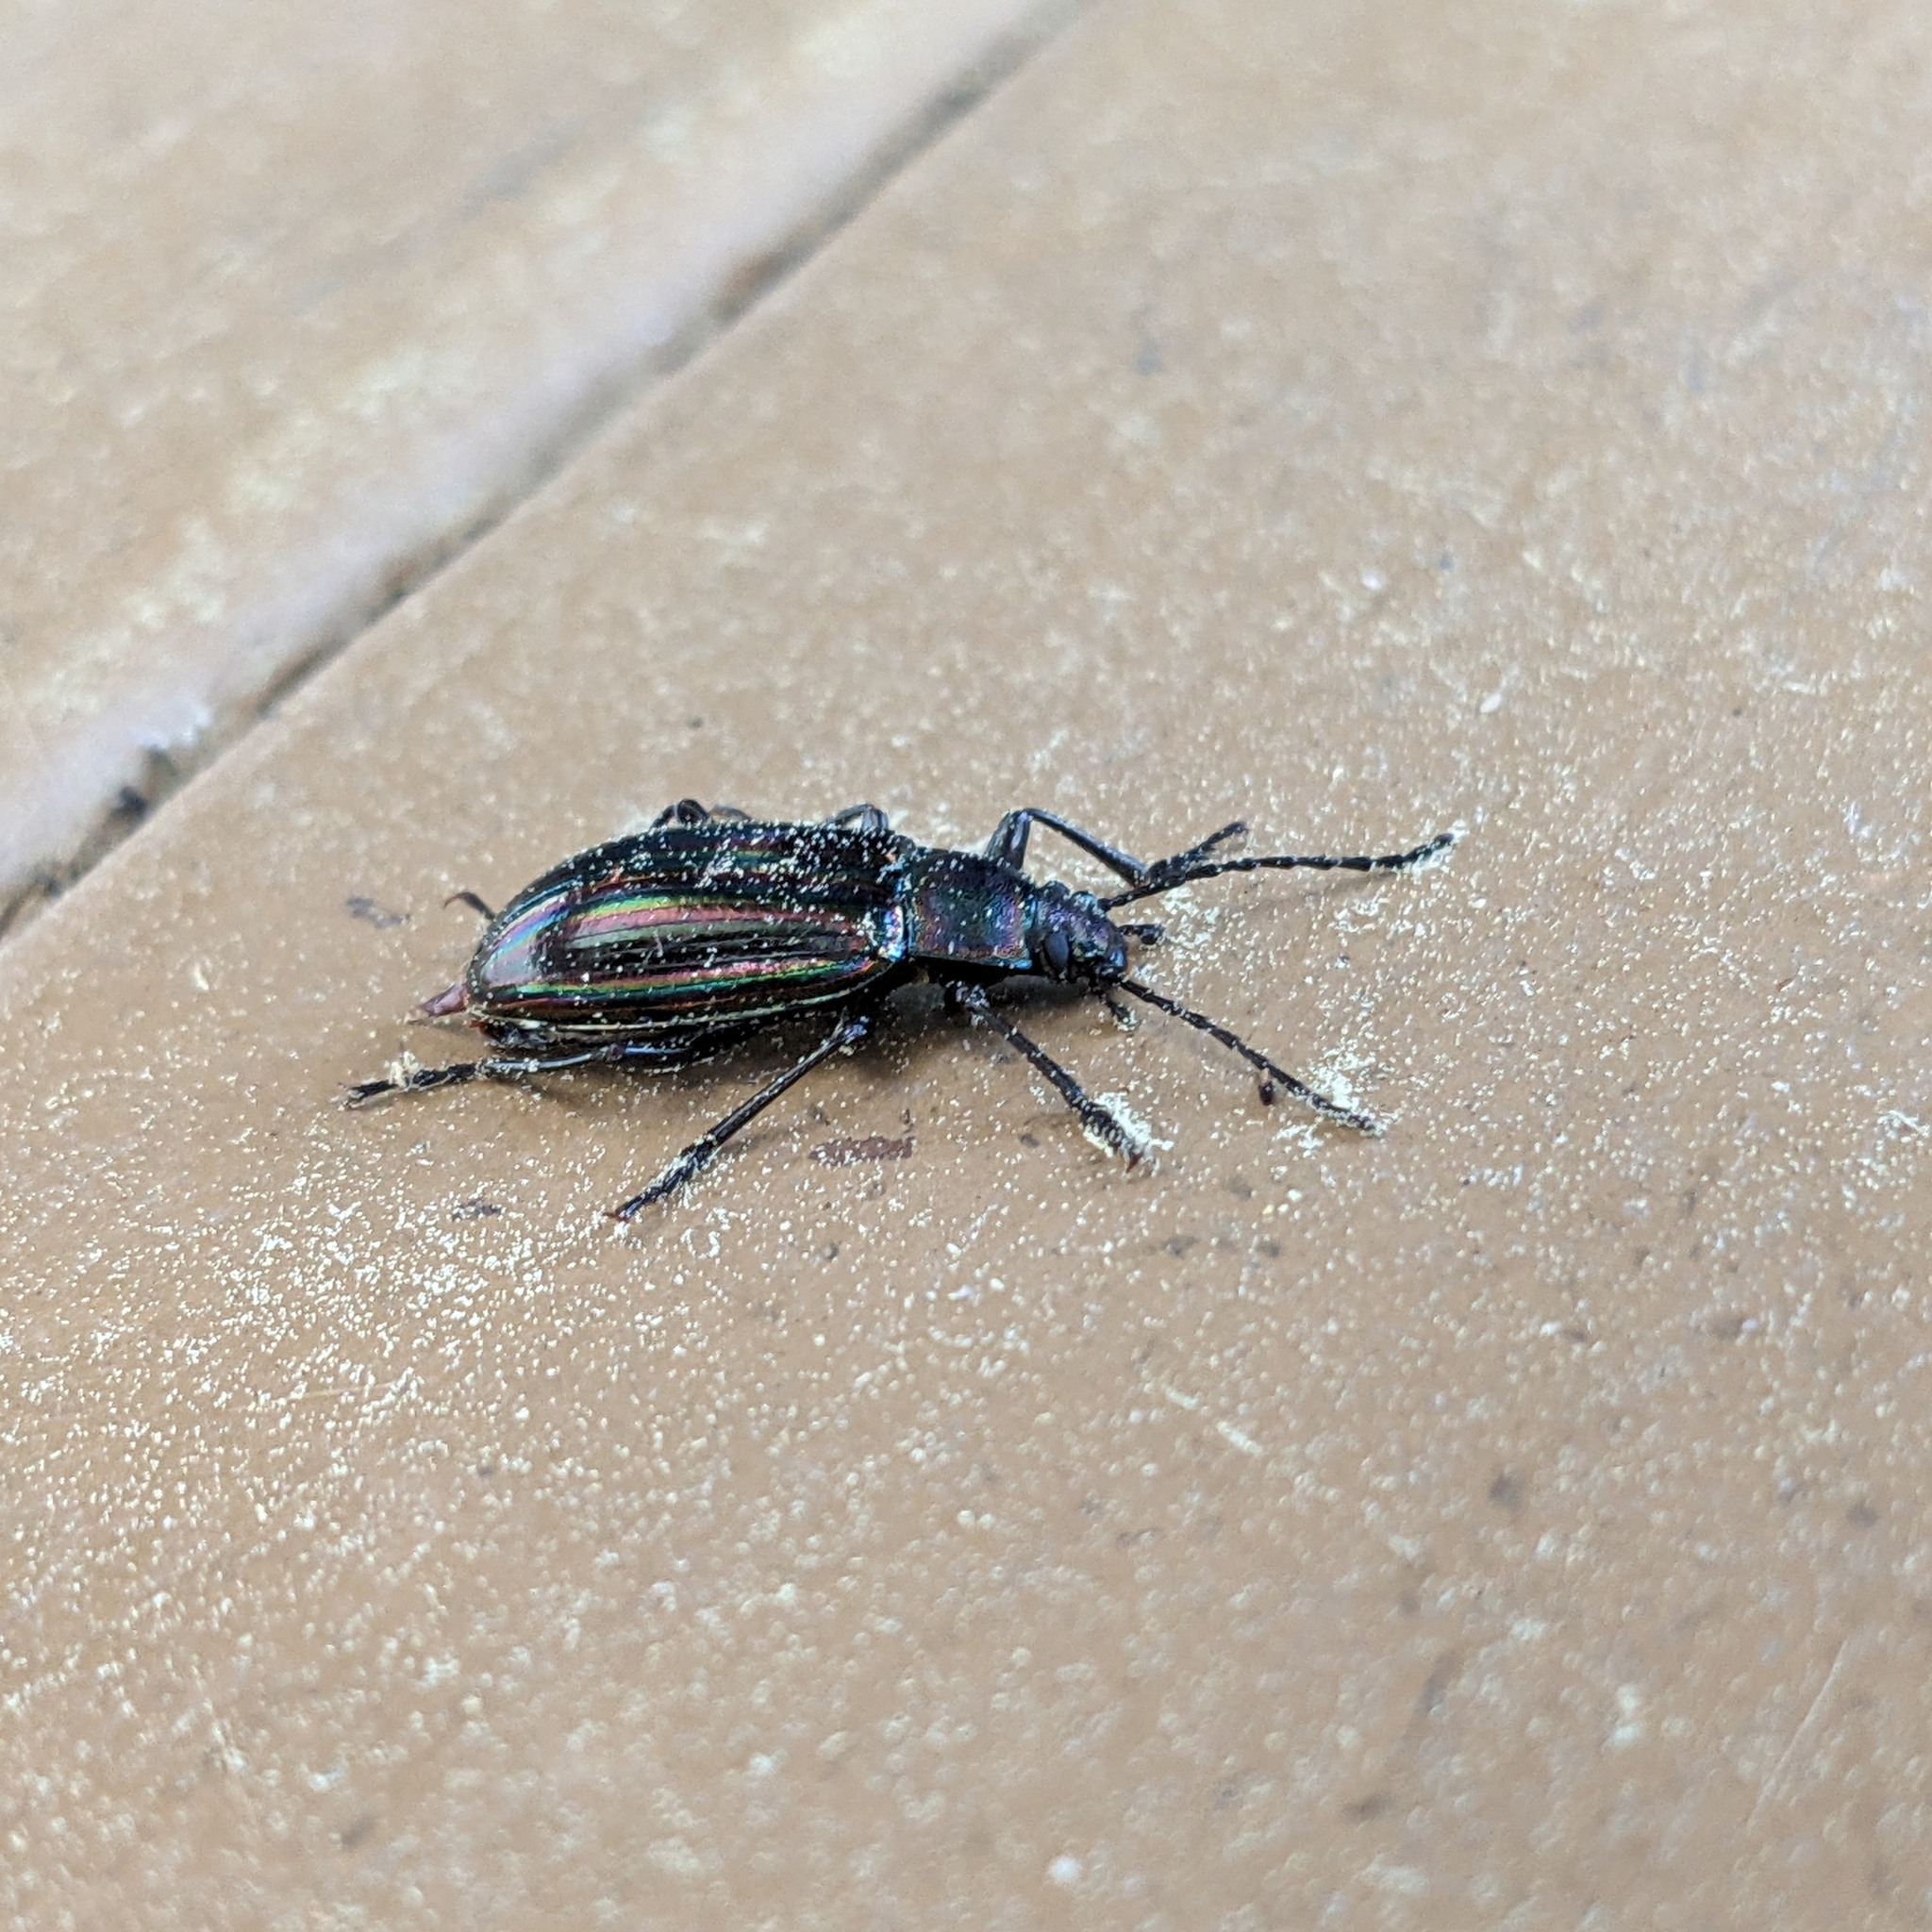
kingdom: Animalia
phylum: Arthropoda
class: Insecta
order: Coleoptera
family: Tenebrionidae
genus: Tarpela
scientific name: Tarpela micans
